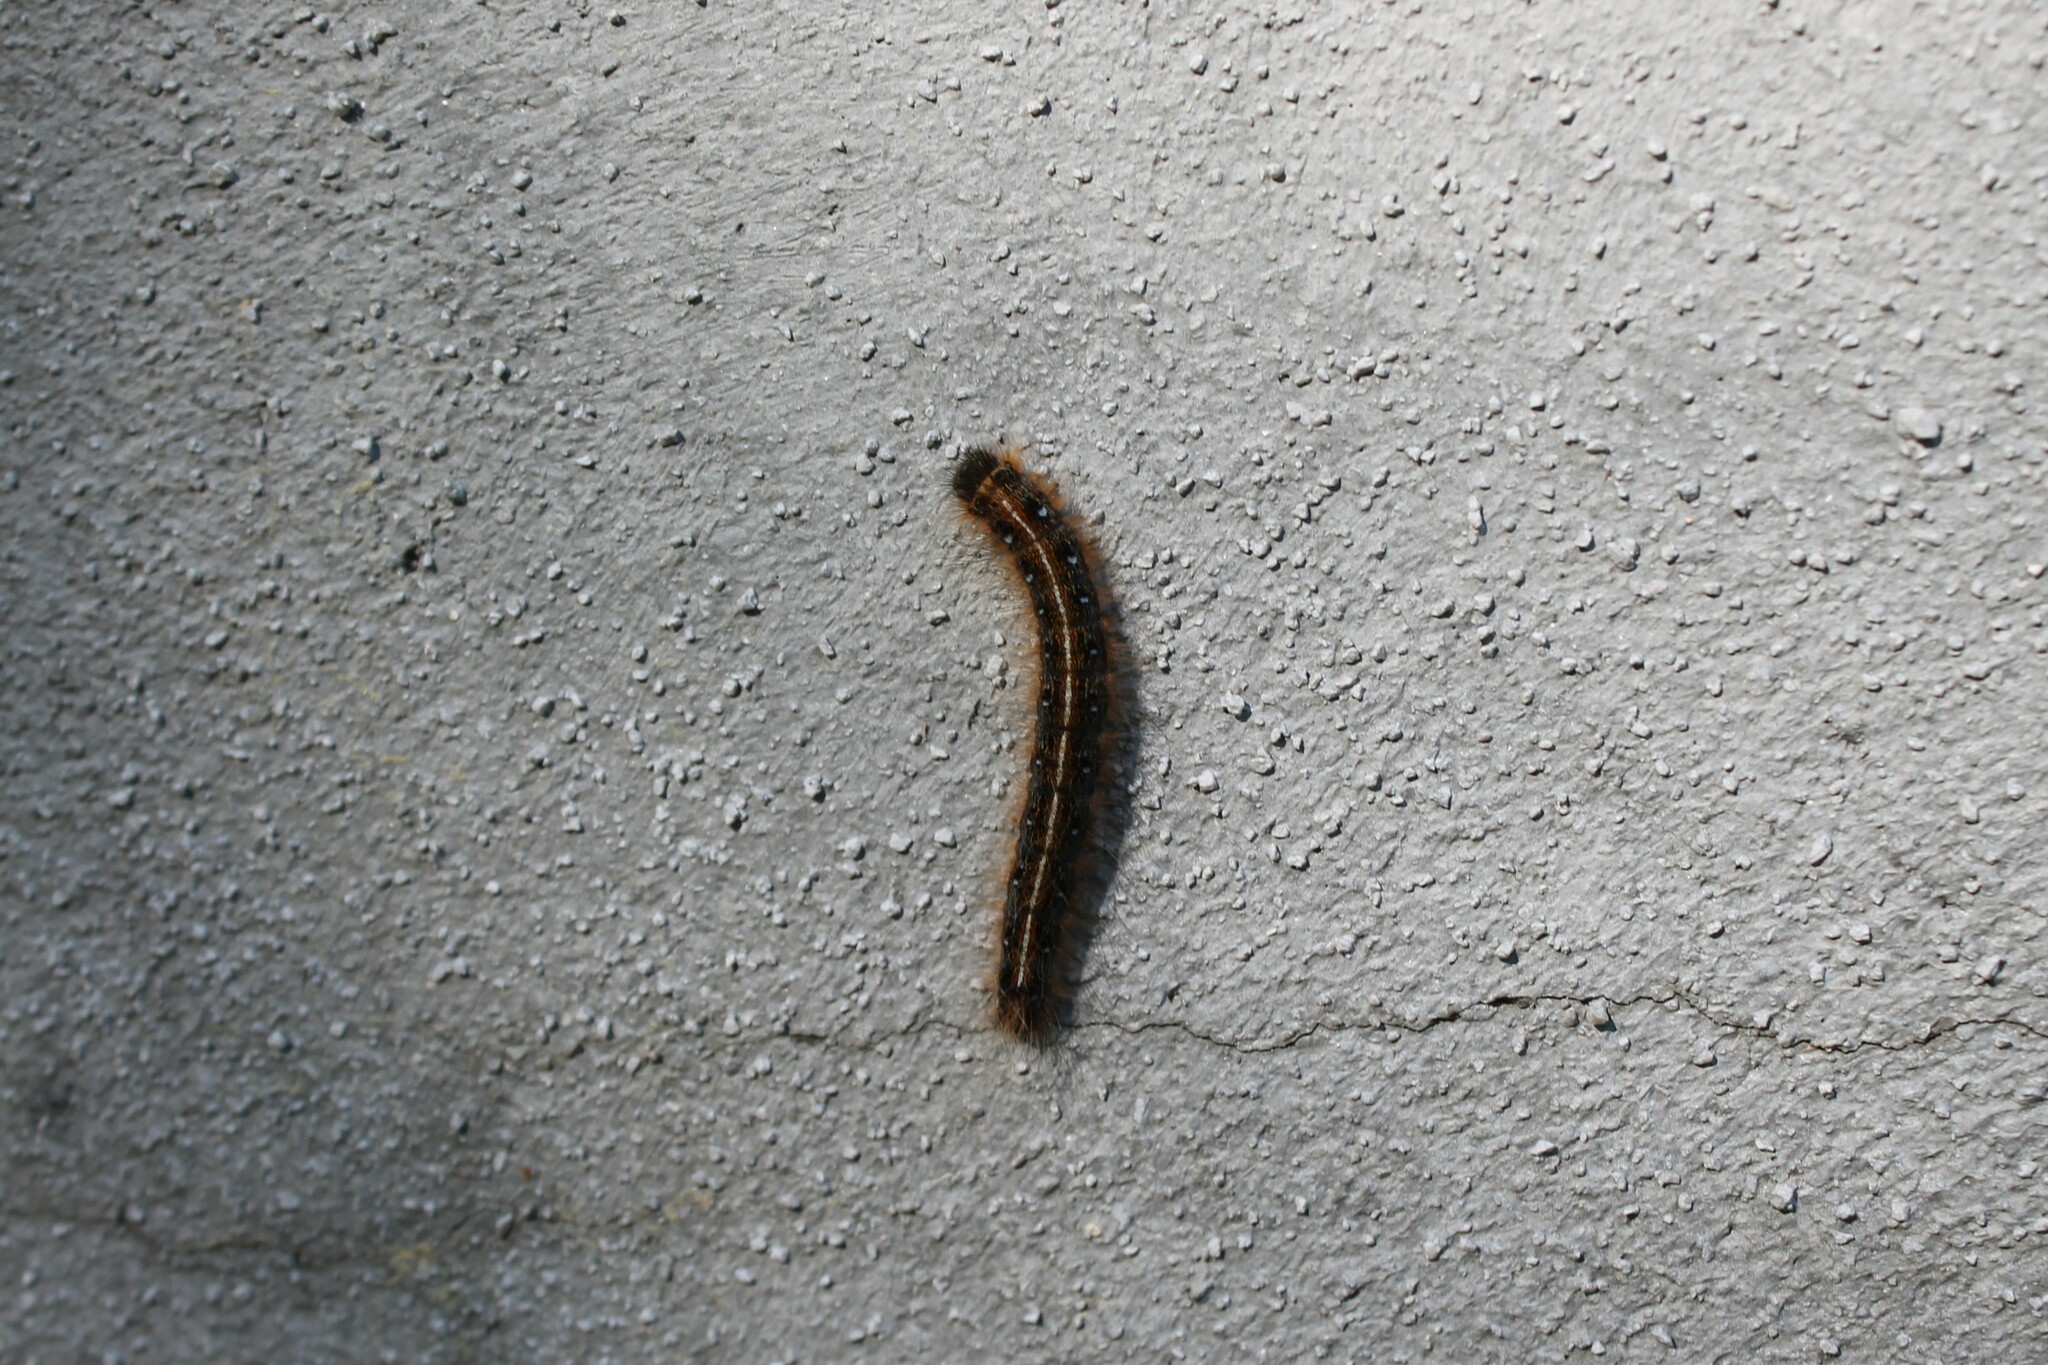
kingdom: Animalia
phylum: Arthropoda
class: Insecta
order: Lepidoptera
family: Lasiocampidae
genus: Malacosoma
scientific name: Malacosoma americana
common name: Eastern tent caterpillar moth
